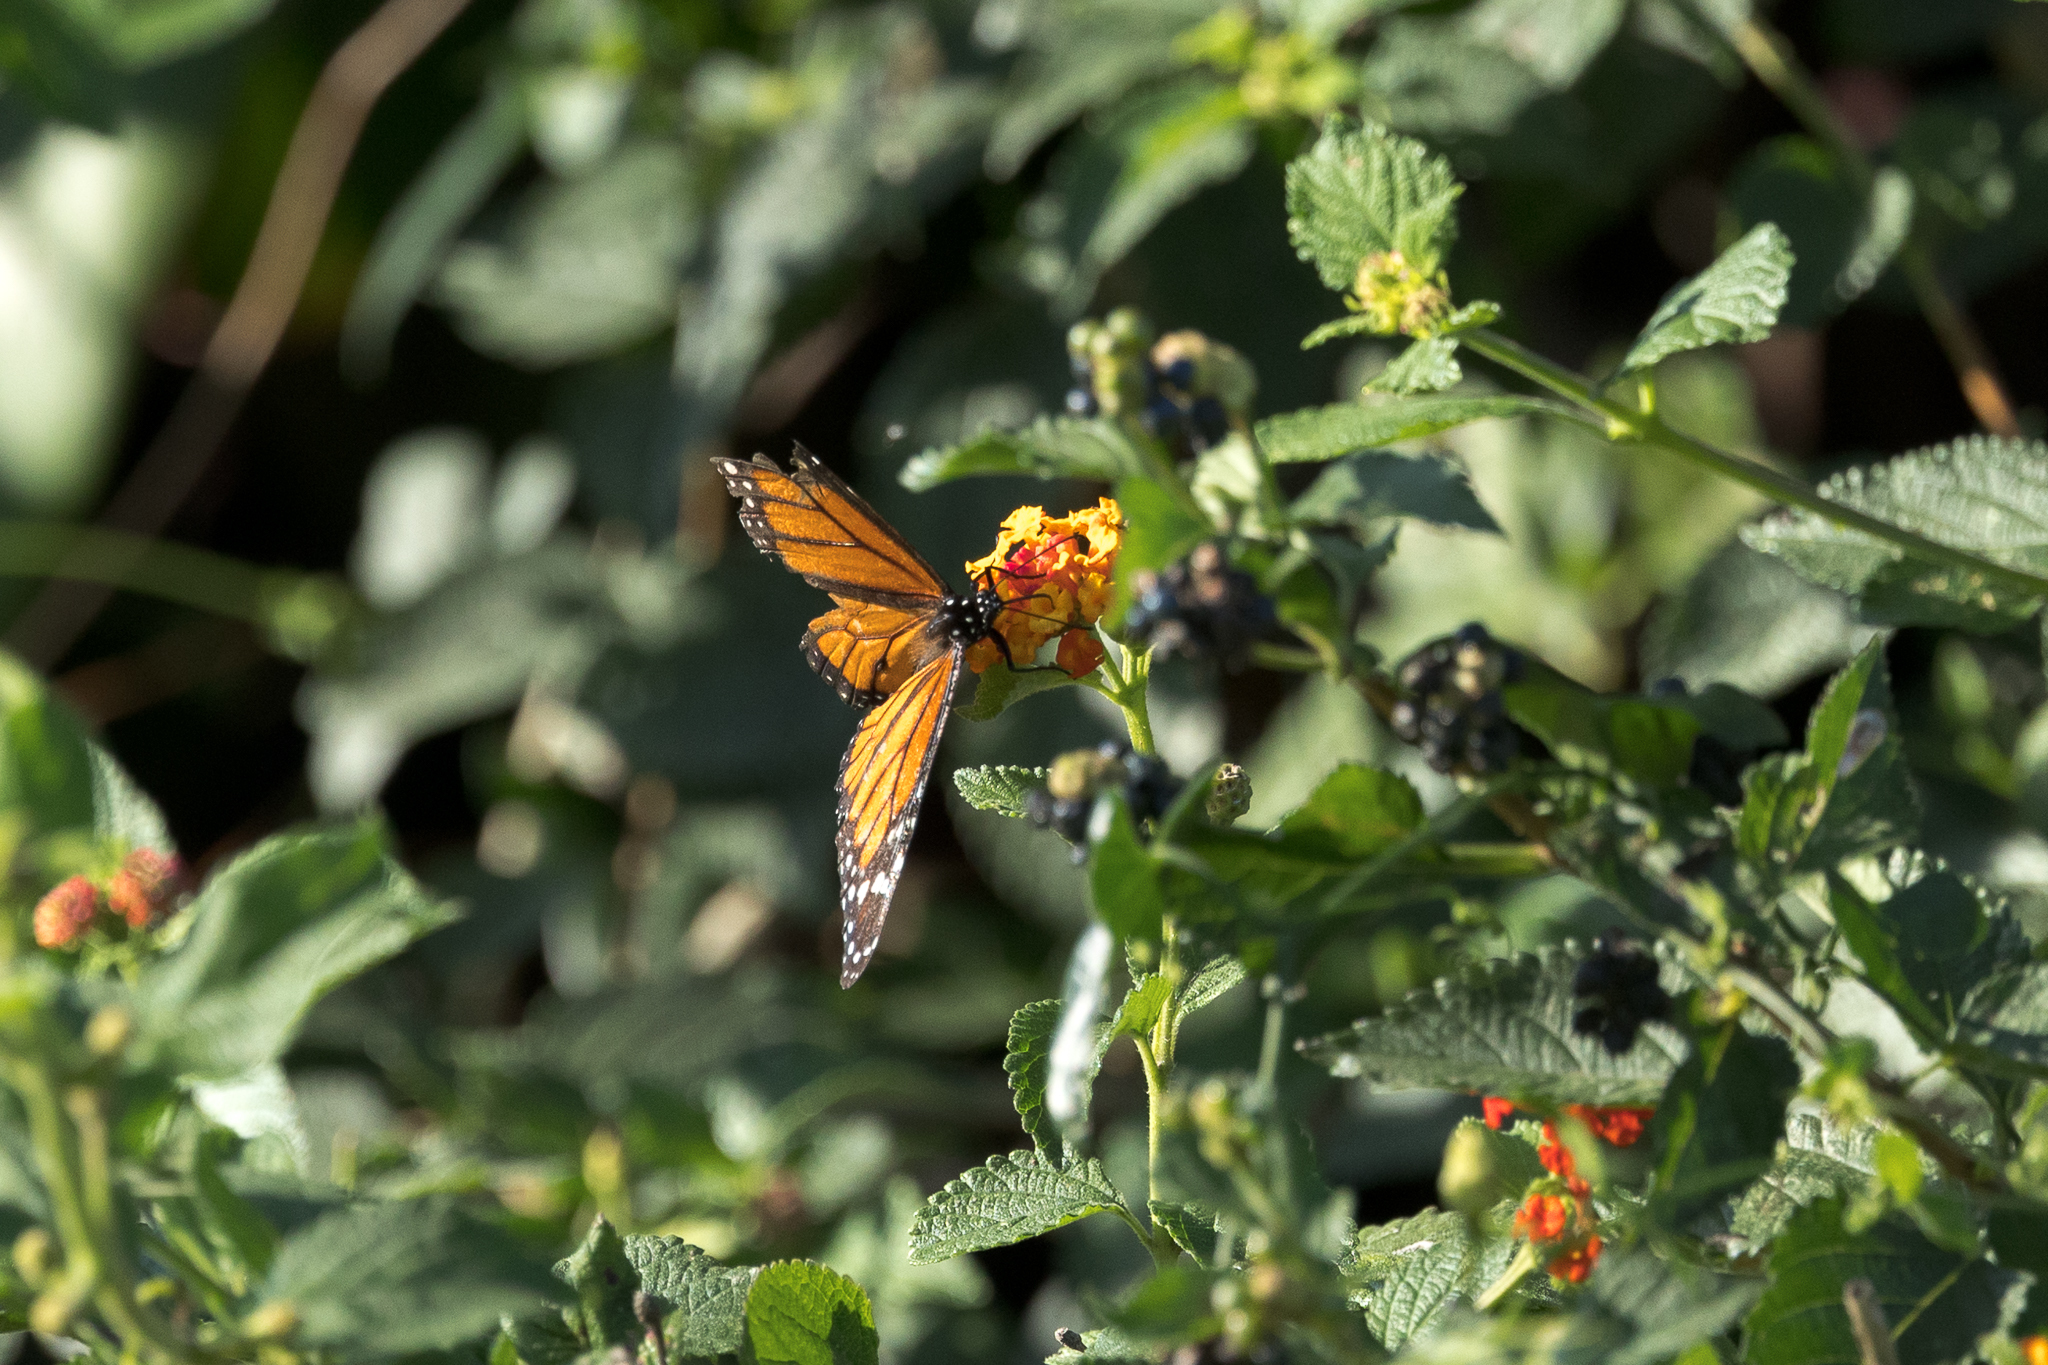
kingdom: Animalia
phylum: Arthropoda
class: Insecta
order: Lepidoptera
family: Nymphalidae
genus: Danaus
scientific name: Danaus plexippus
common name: Monarch
